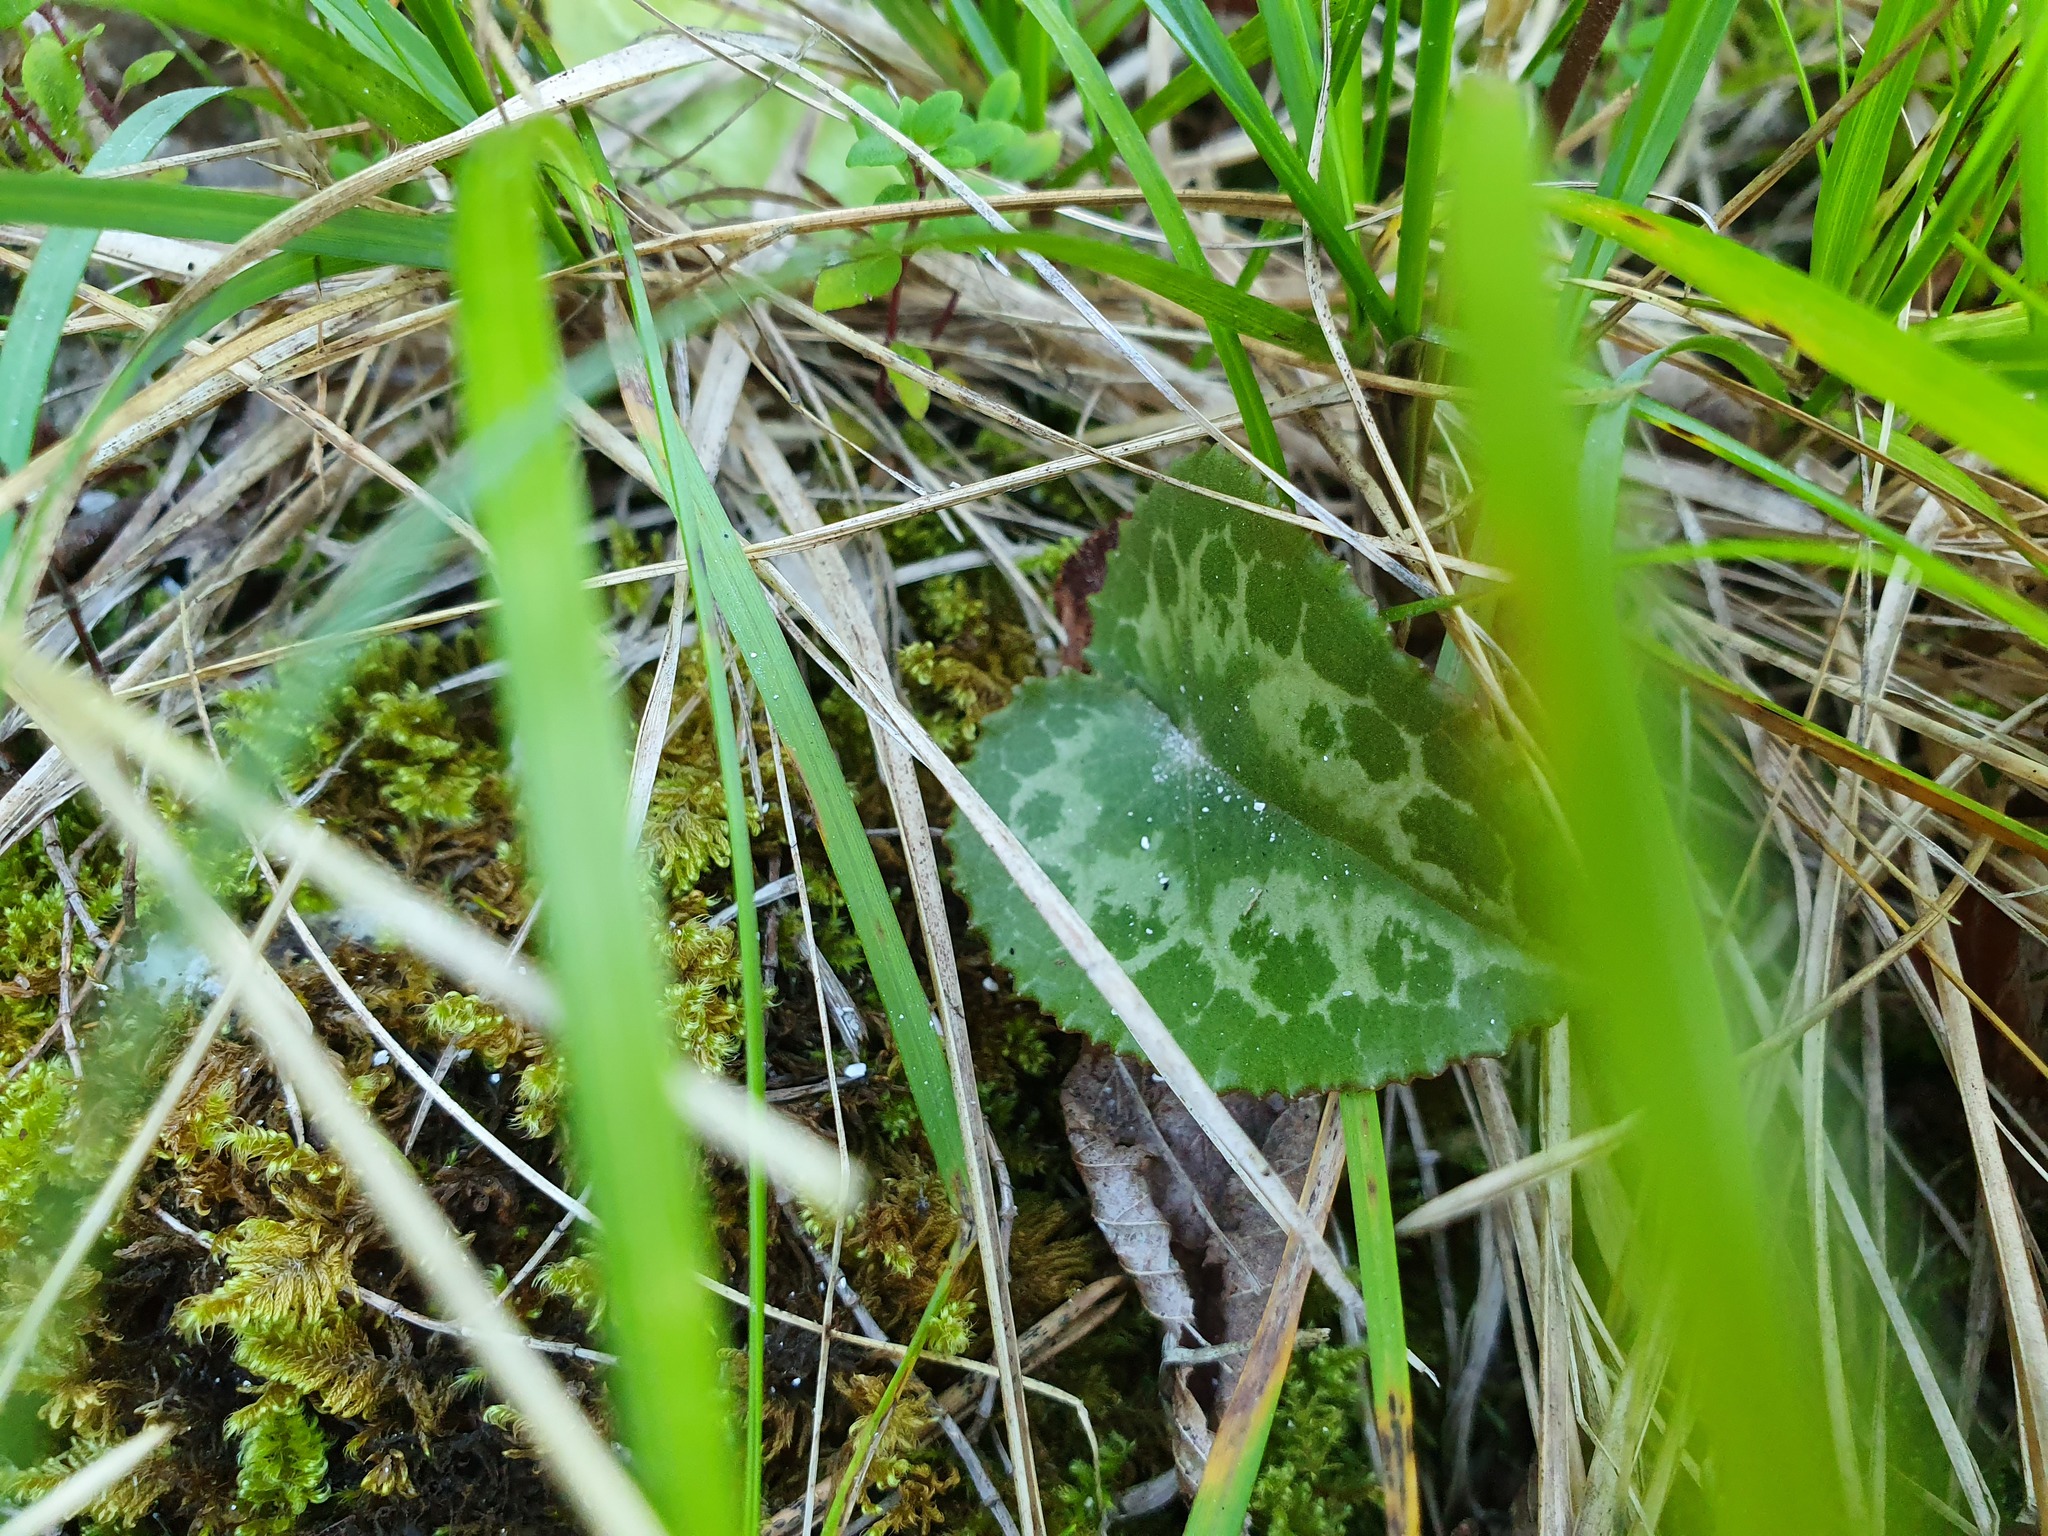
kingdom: Plantae
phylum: Tracheophyta
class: Magnoliopsida
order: Ericales
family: Primulaceae
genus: Cyclamen
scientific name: Cyclamen purpurascens
